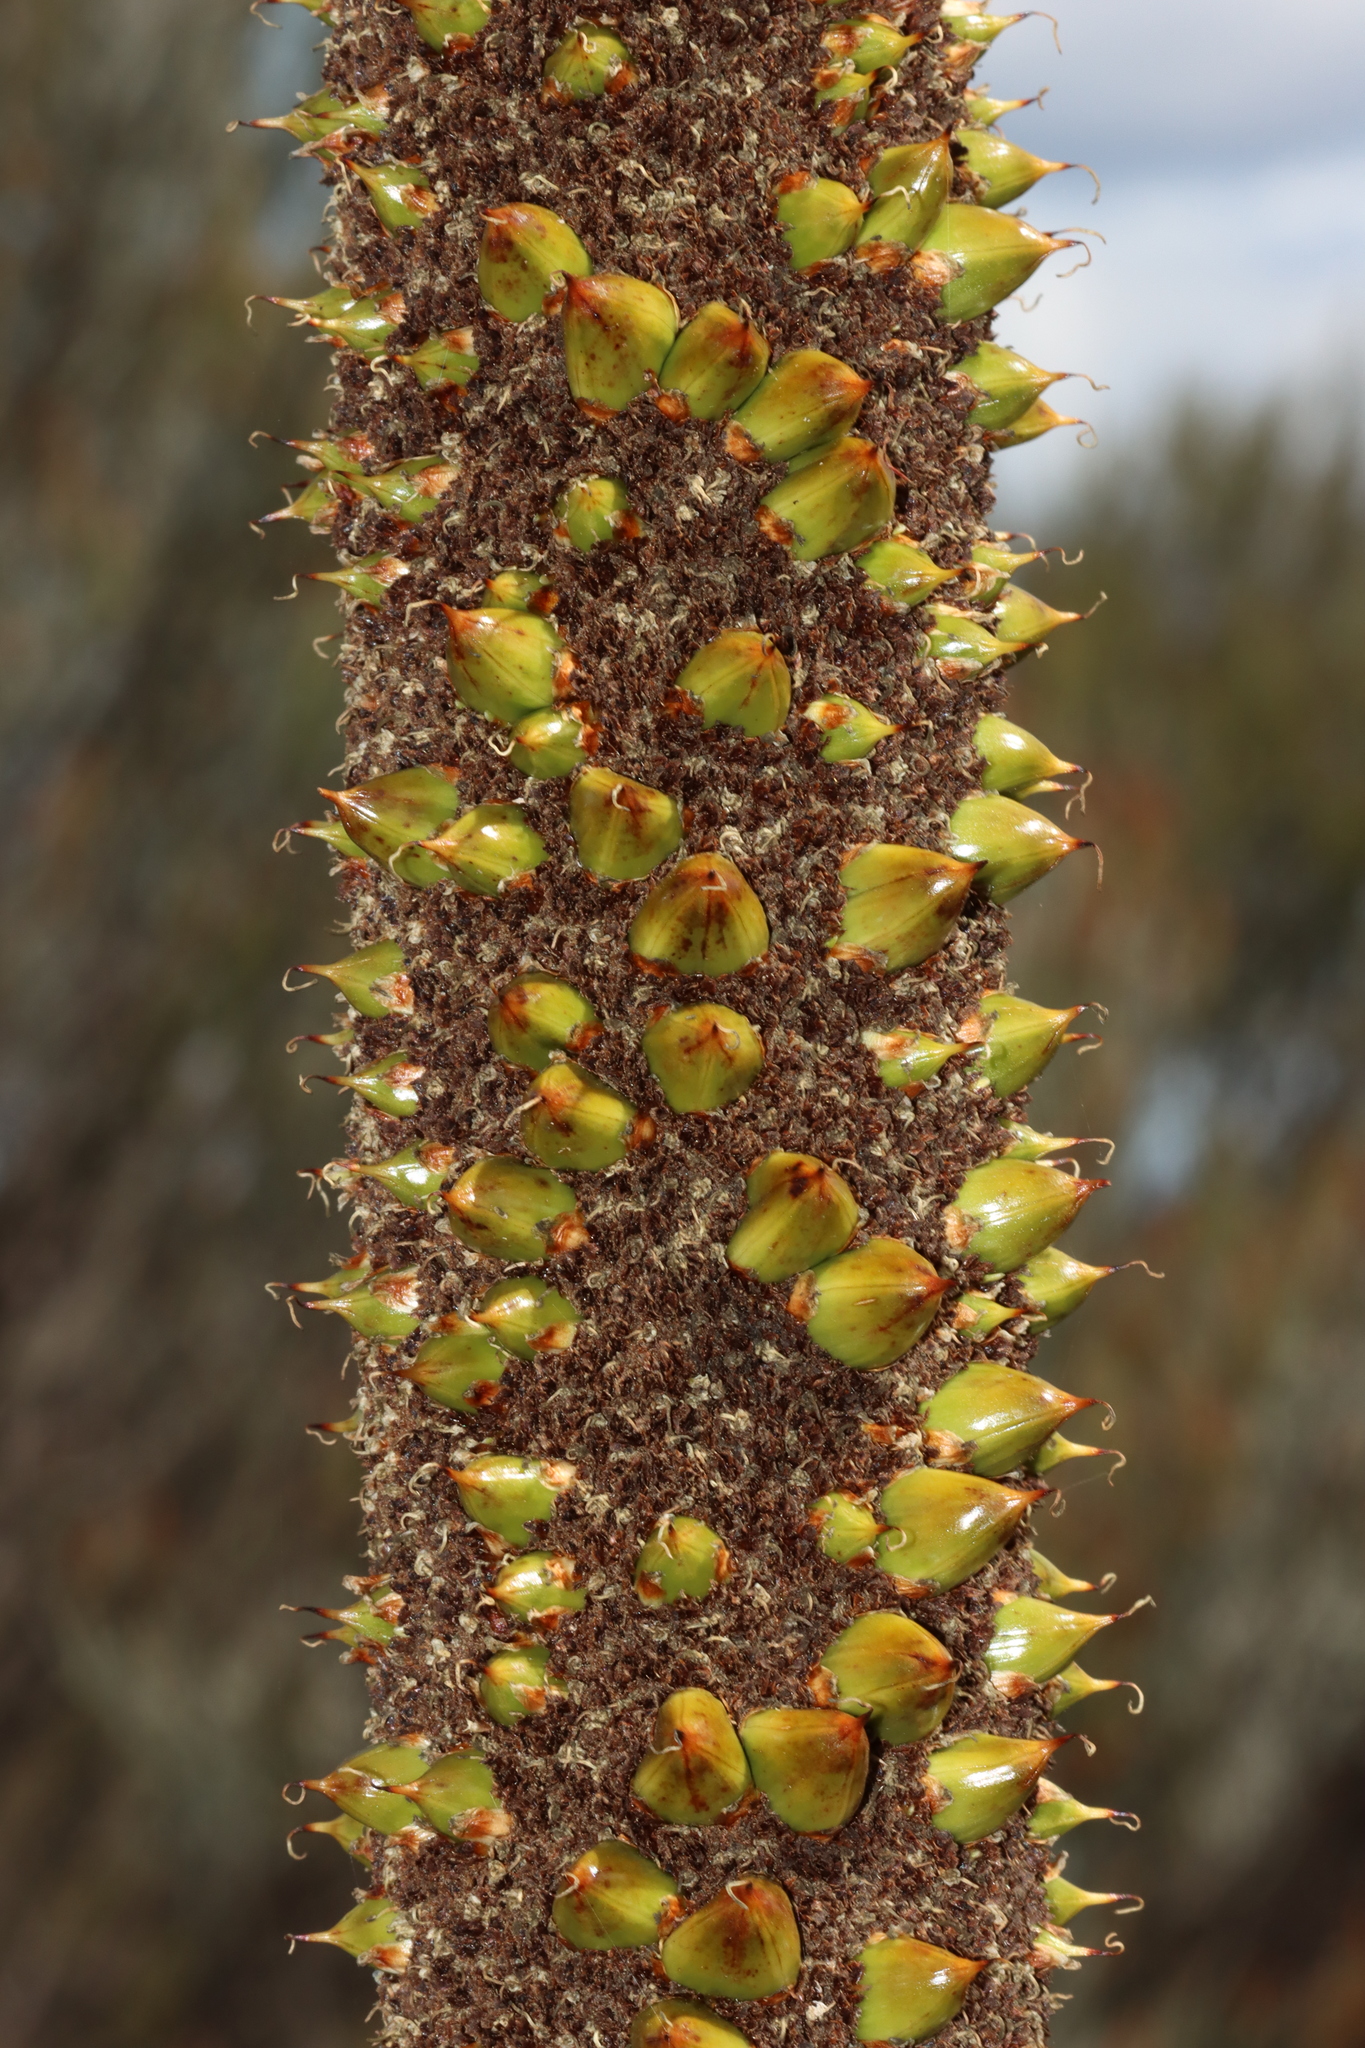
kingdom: Plantae
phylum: Tracheophyta
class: Liliopsida
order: Asparagales
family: Asphodelaceae
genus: Xanthorrhoea
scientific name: Xanthorrhoea drummondii
